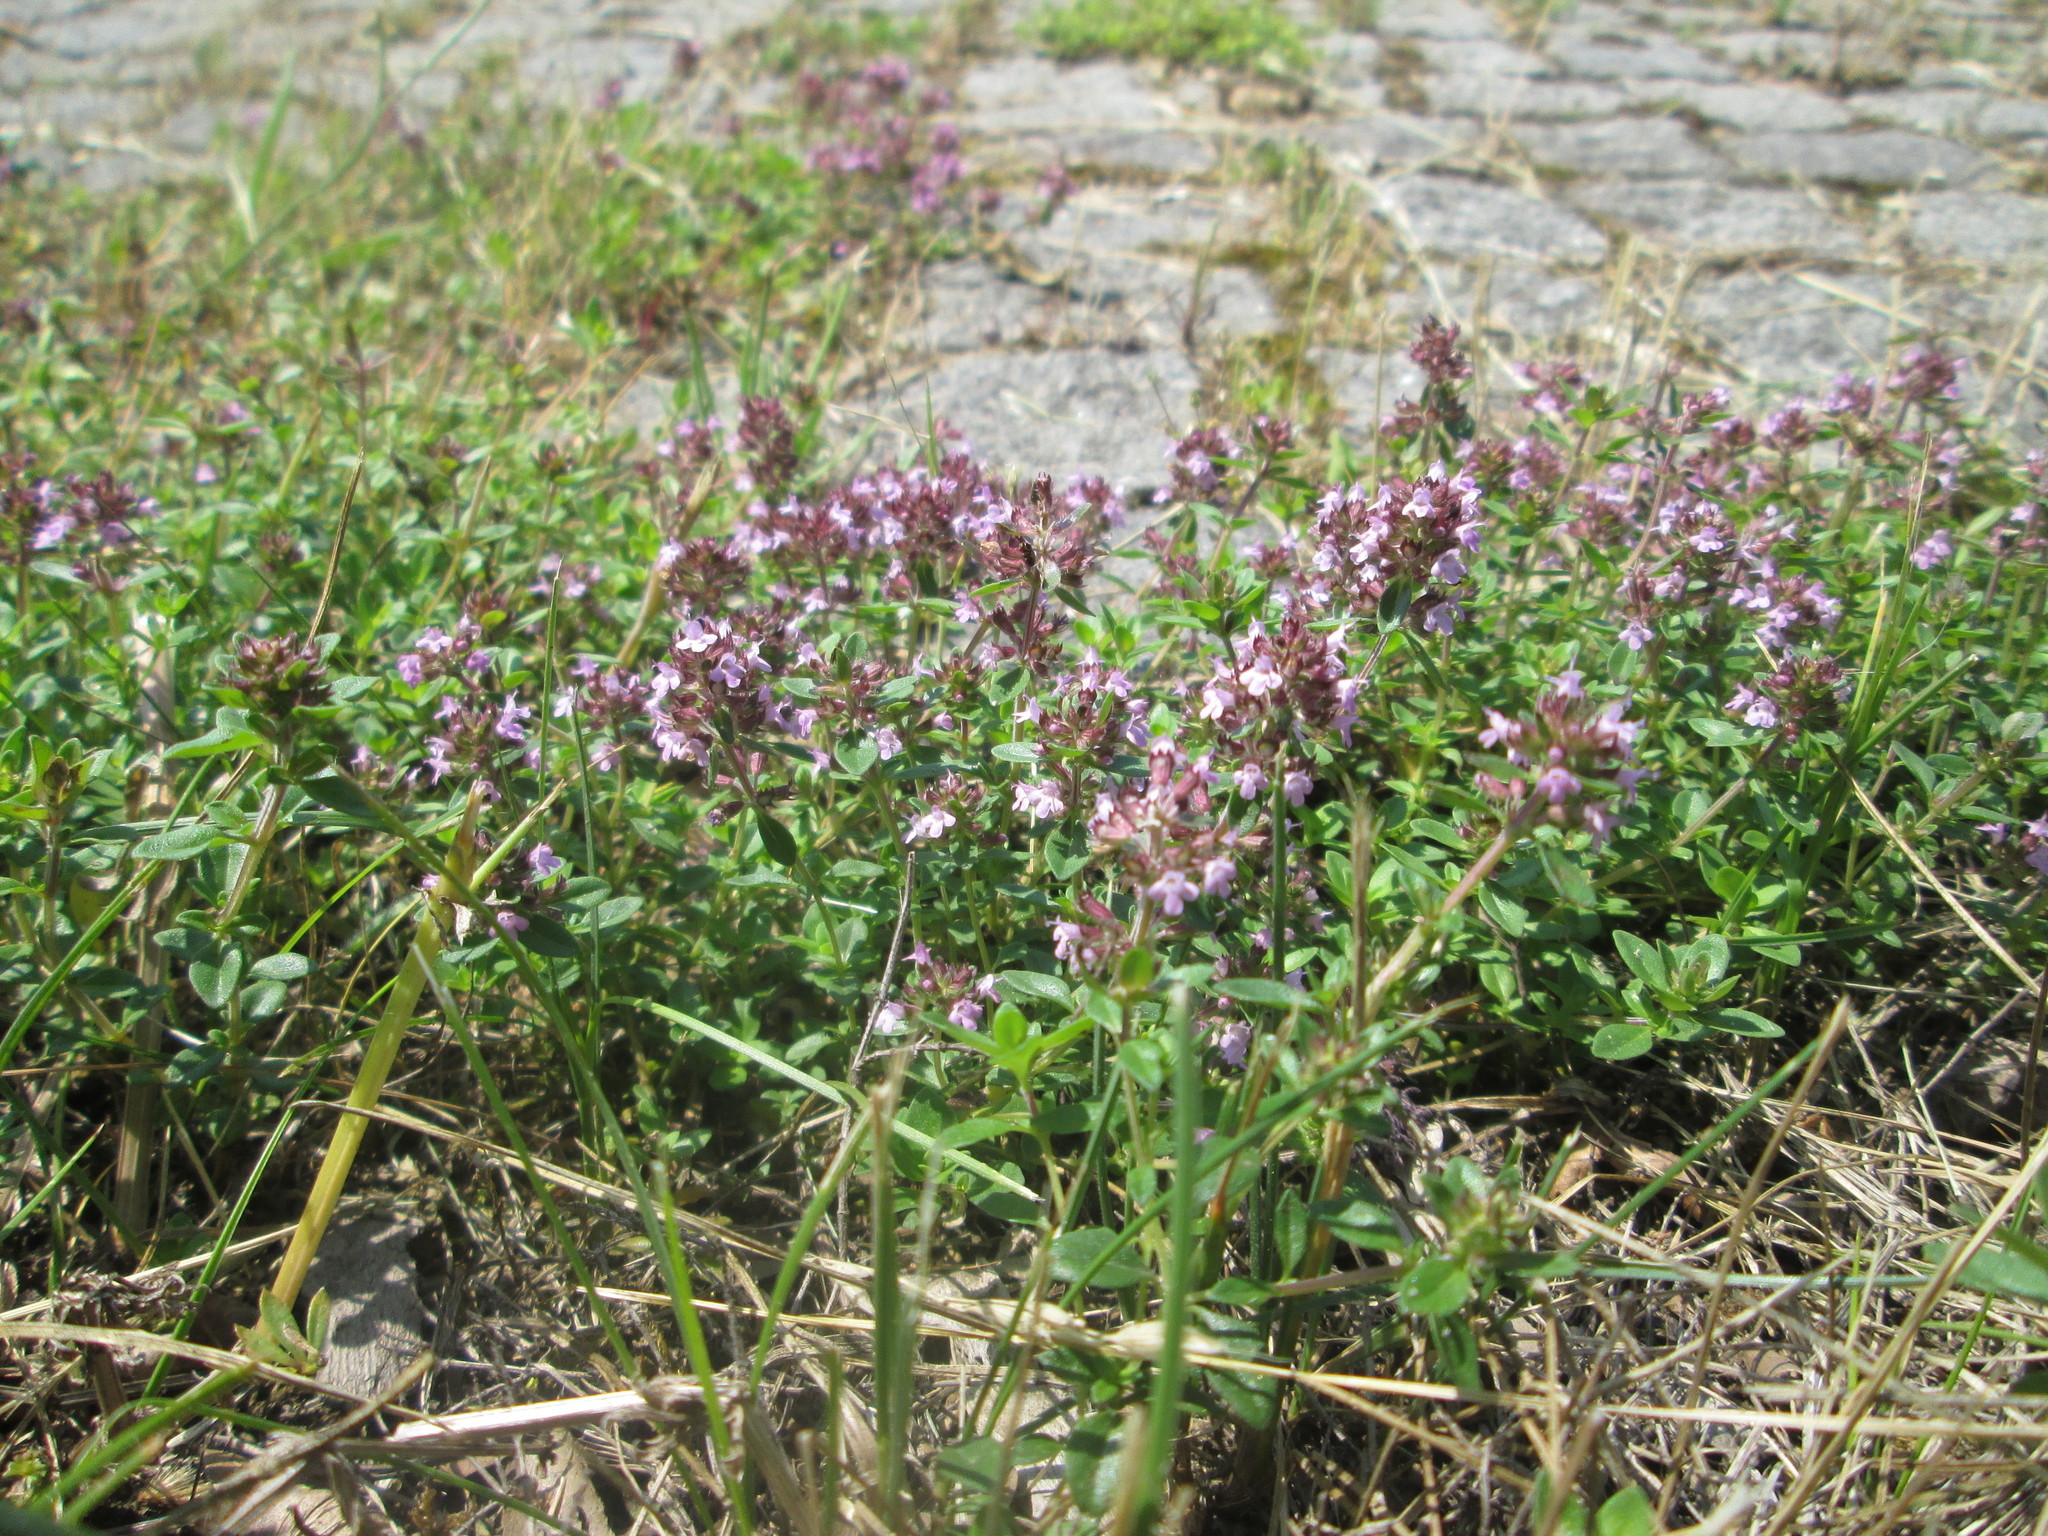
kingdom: Plantae
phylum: Tracheophyta
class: Magnoliopsida
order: Lamiales
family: Lamiaceae
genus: Thymus
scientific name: Thymus pulegioides
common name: Large thyme
